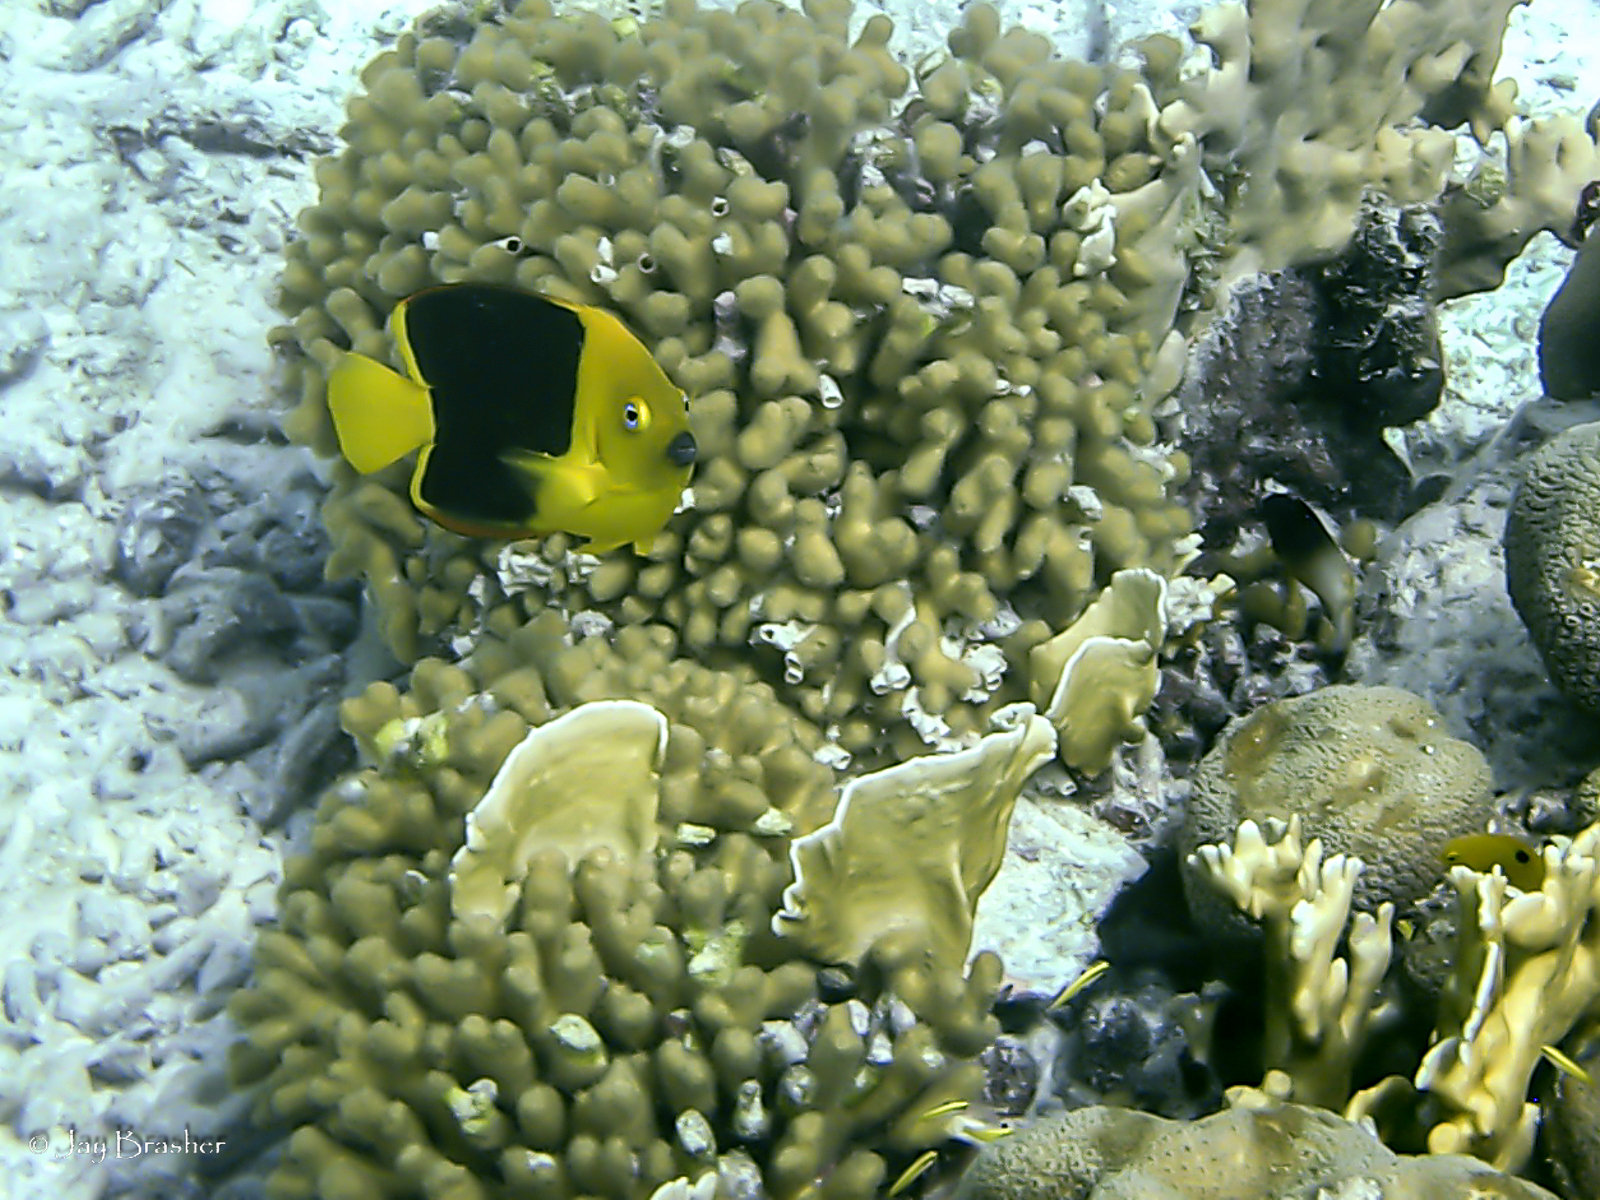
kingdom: Animalia
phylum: Cnidaria
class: Hydrozoa
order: Anthoathecata
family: Milleporidae
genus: Millepora
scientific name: Millepora complanata
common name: Bladed fire coral
